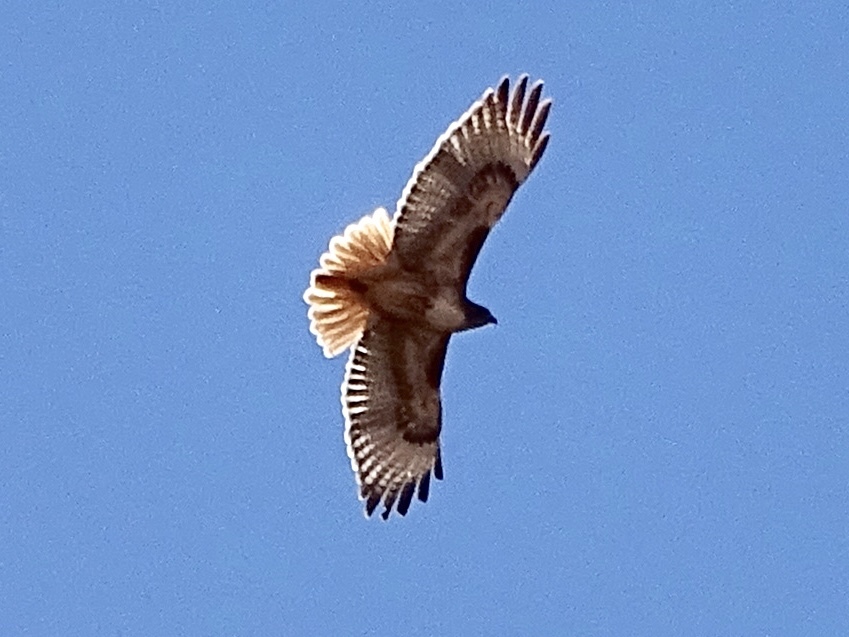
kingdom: Animalia
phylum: Chordata
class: Aves
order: Accipitriformes
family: Accipitridae
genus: Buteo
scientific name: Buteo jamaicensis
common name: Red-tailed hawk
